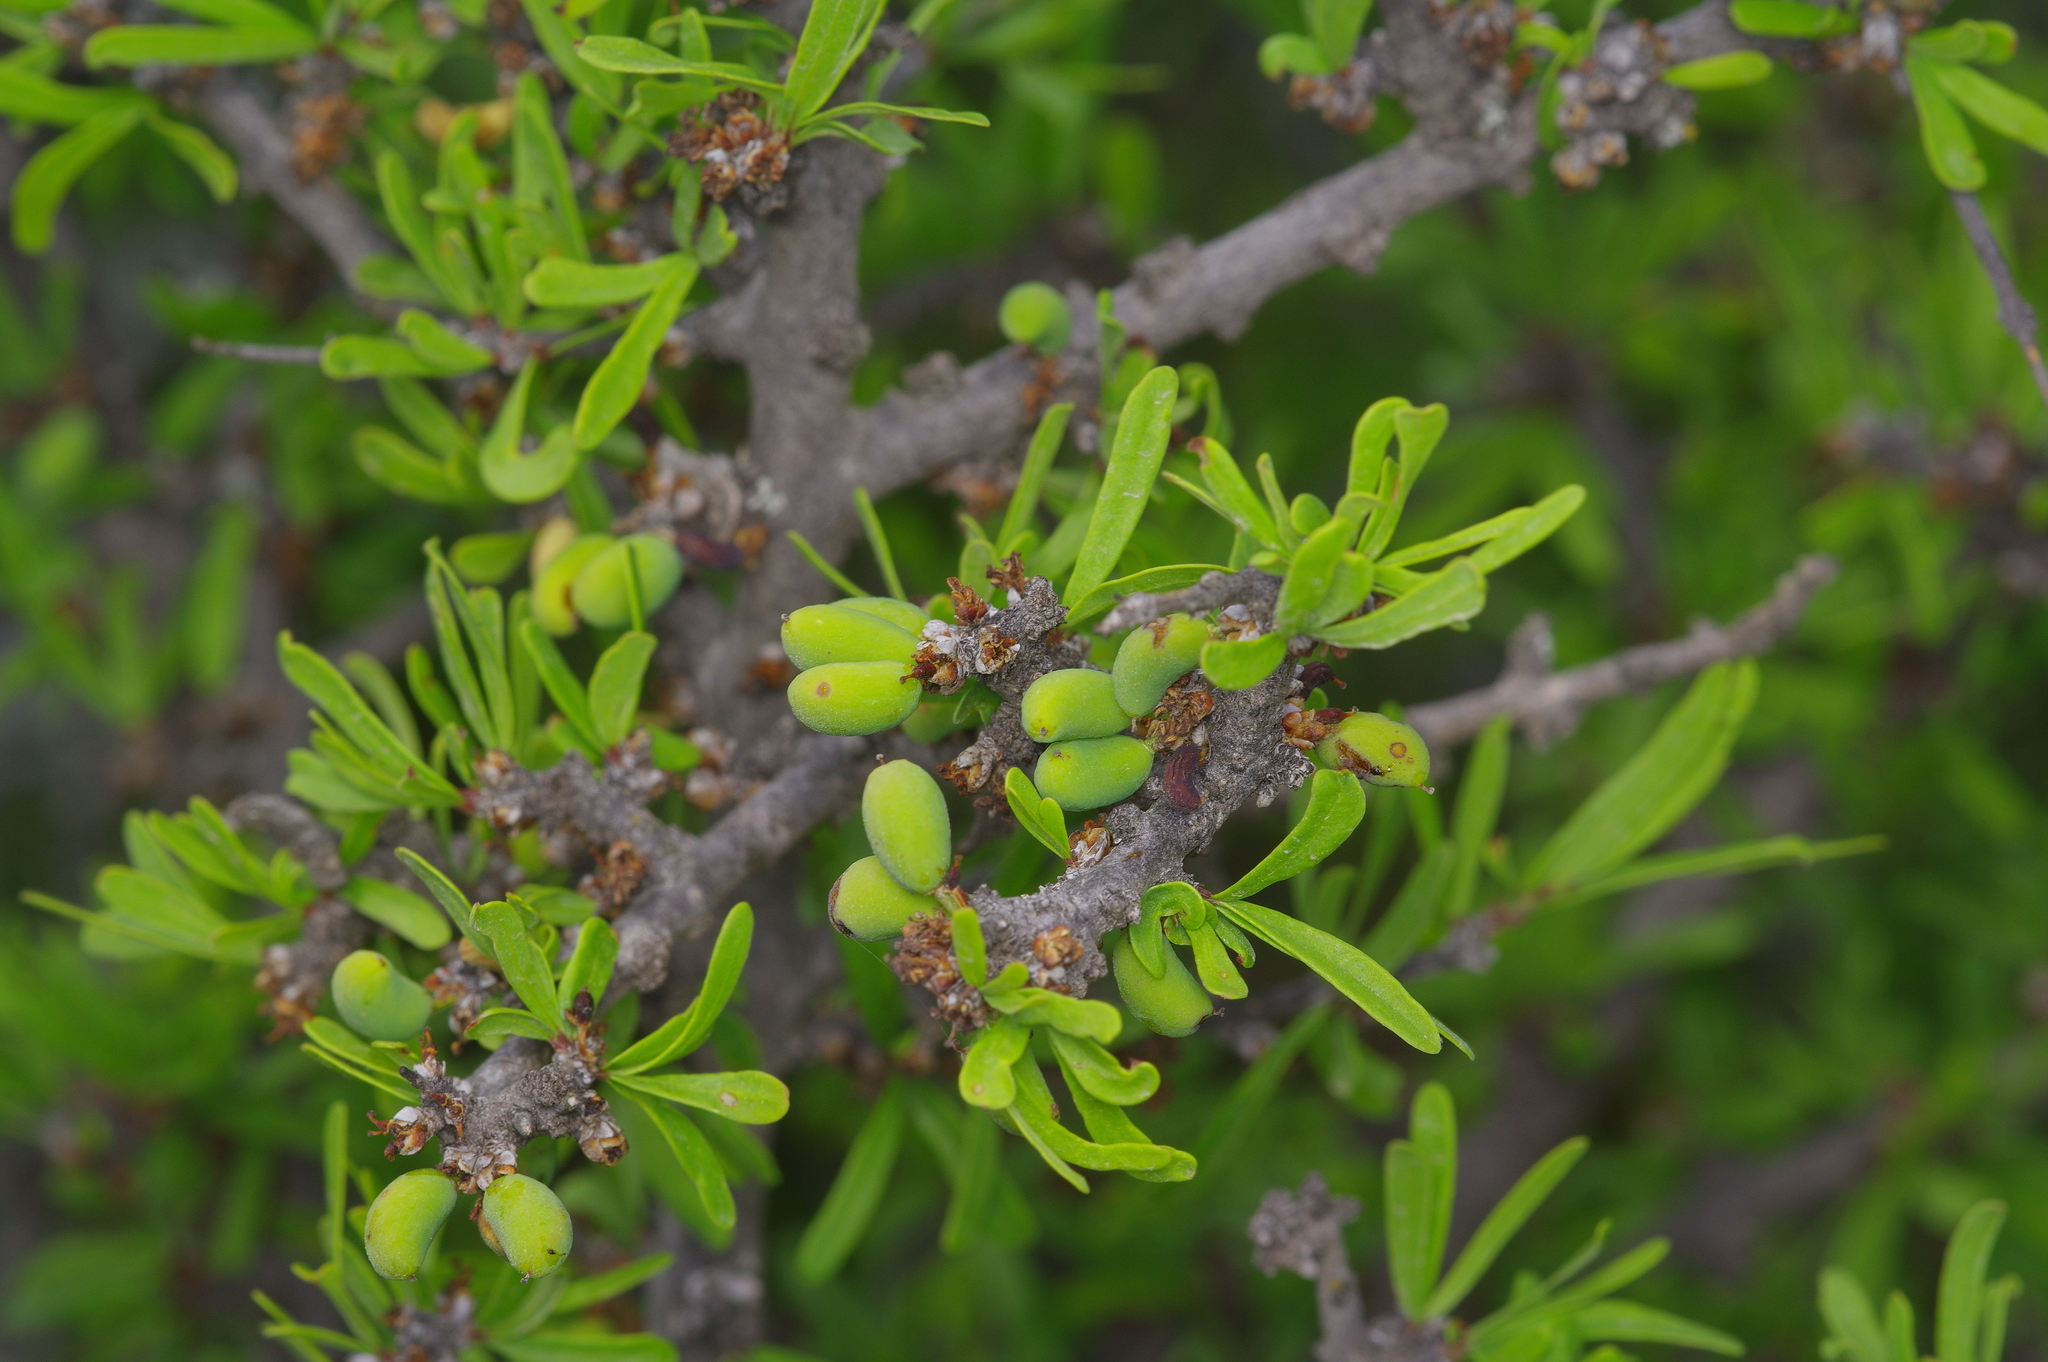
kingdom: Plantae
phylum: Tracheophyta
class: Magnoliopsida
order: Lamiales
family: Oleaceae
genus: Forestiera
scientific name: Forestiera angustifolia
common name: Elbowbush
